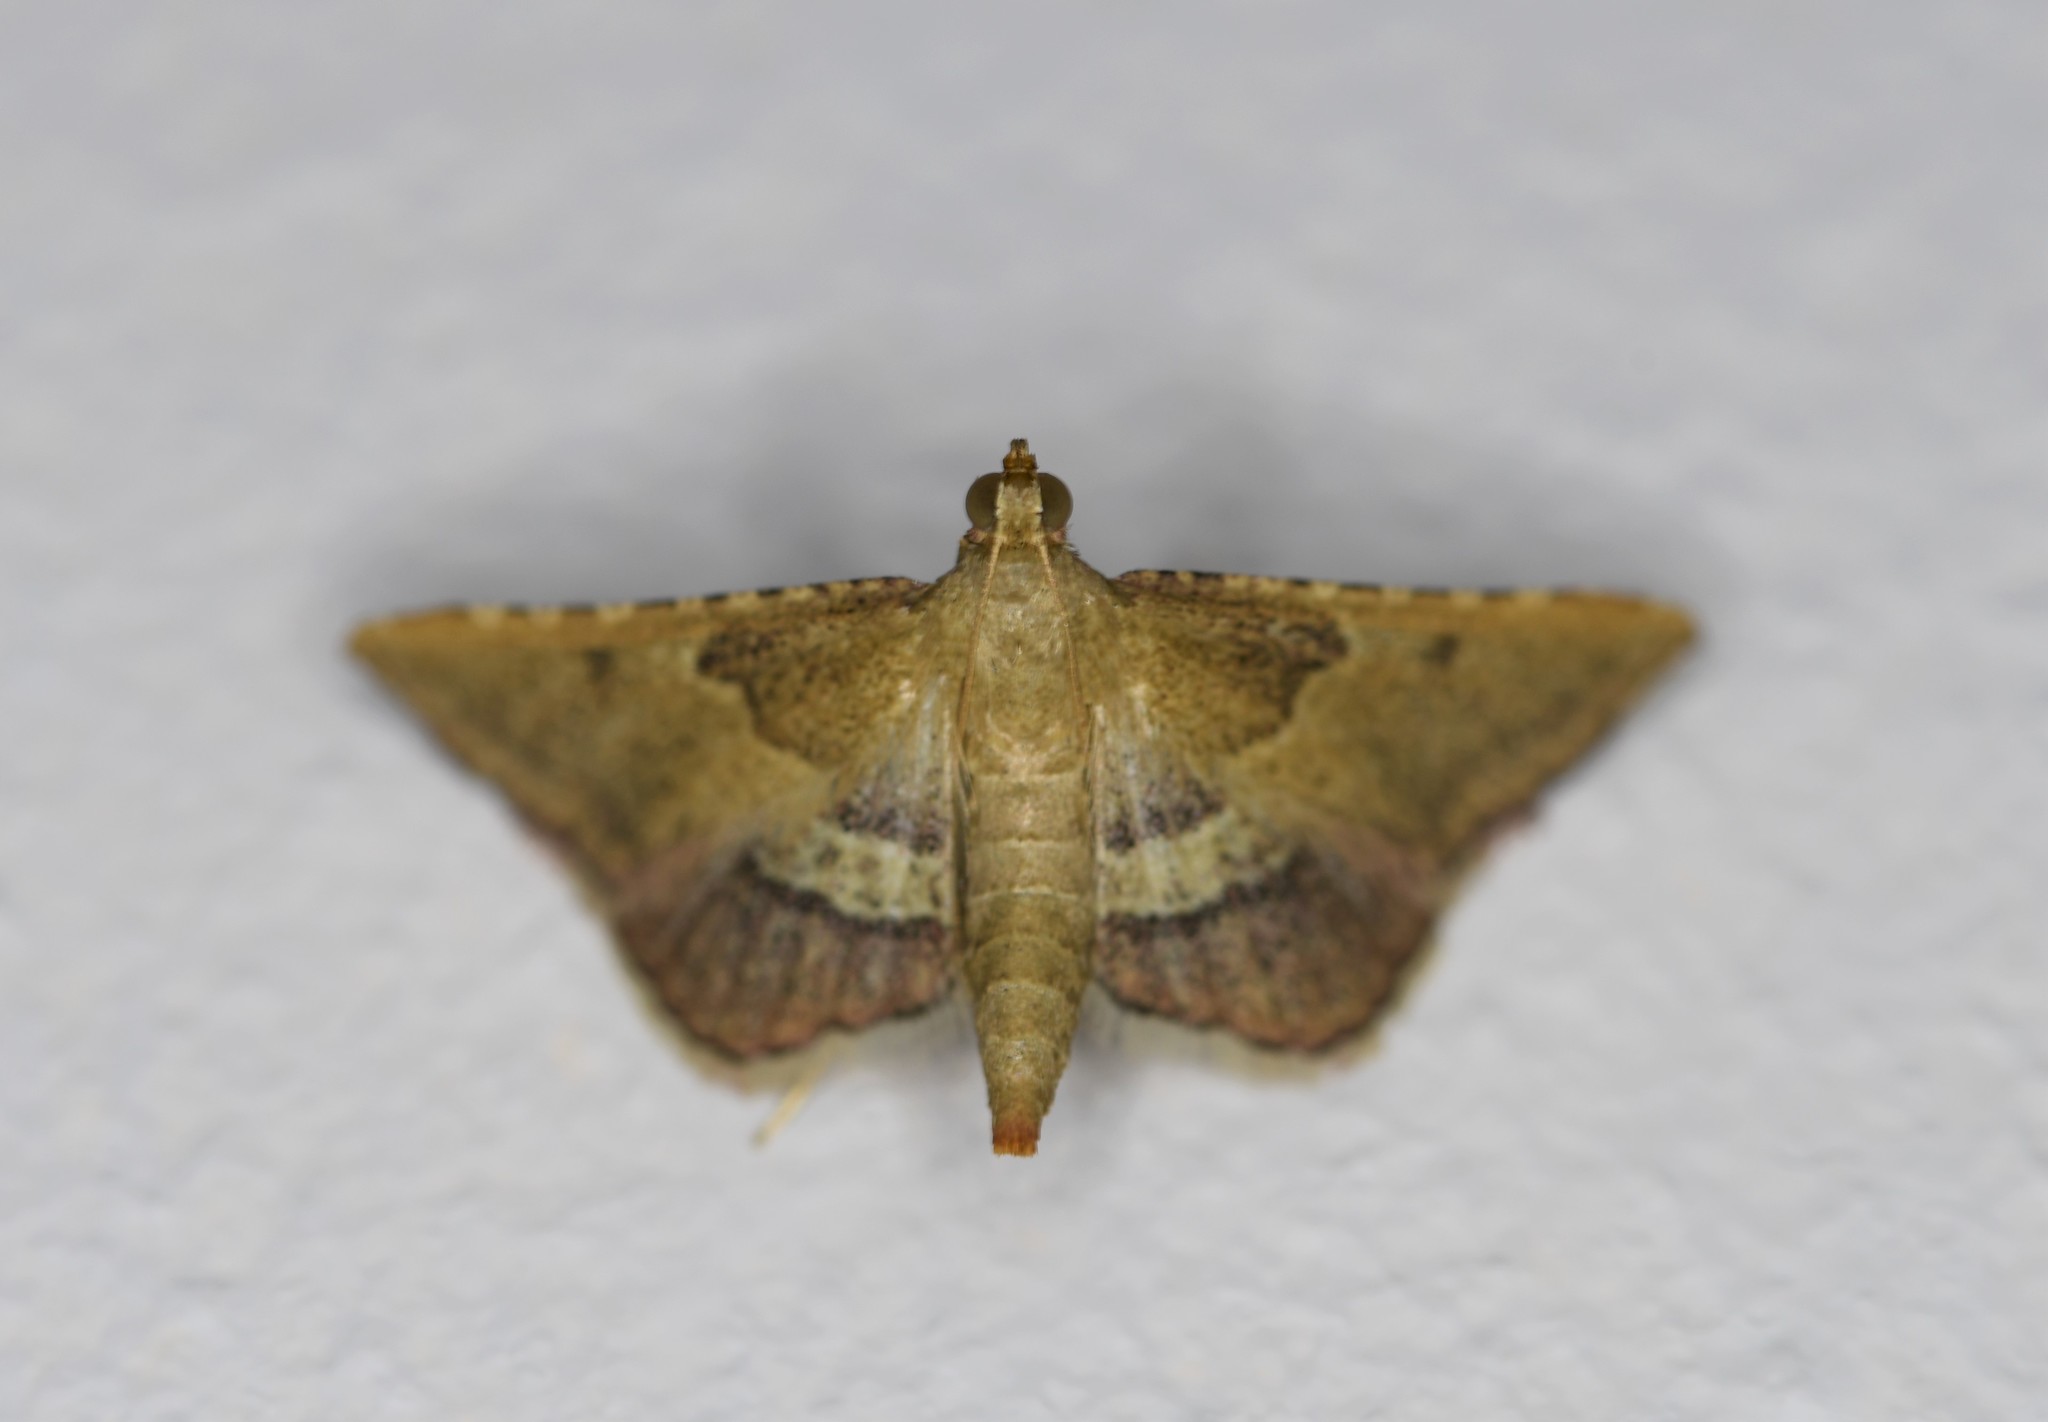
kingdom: Animalia
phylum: Arthropoda
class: Insecta
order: Lepidoptera
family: Pyralidae
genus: Endotricha
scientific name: Endotricha flammealis
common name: Rosy tabby
